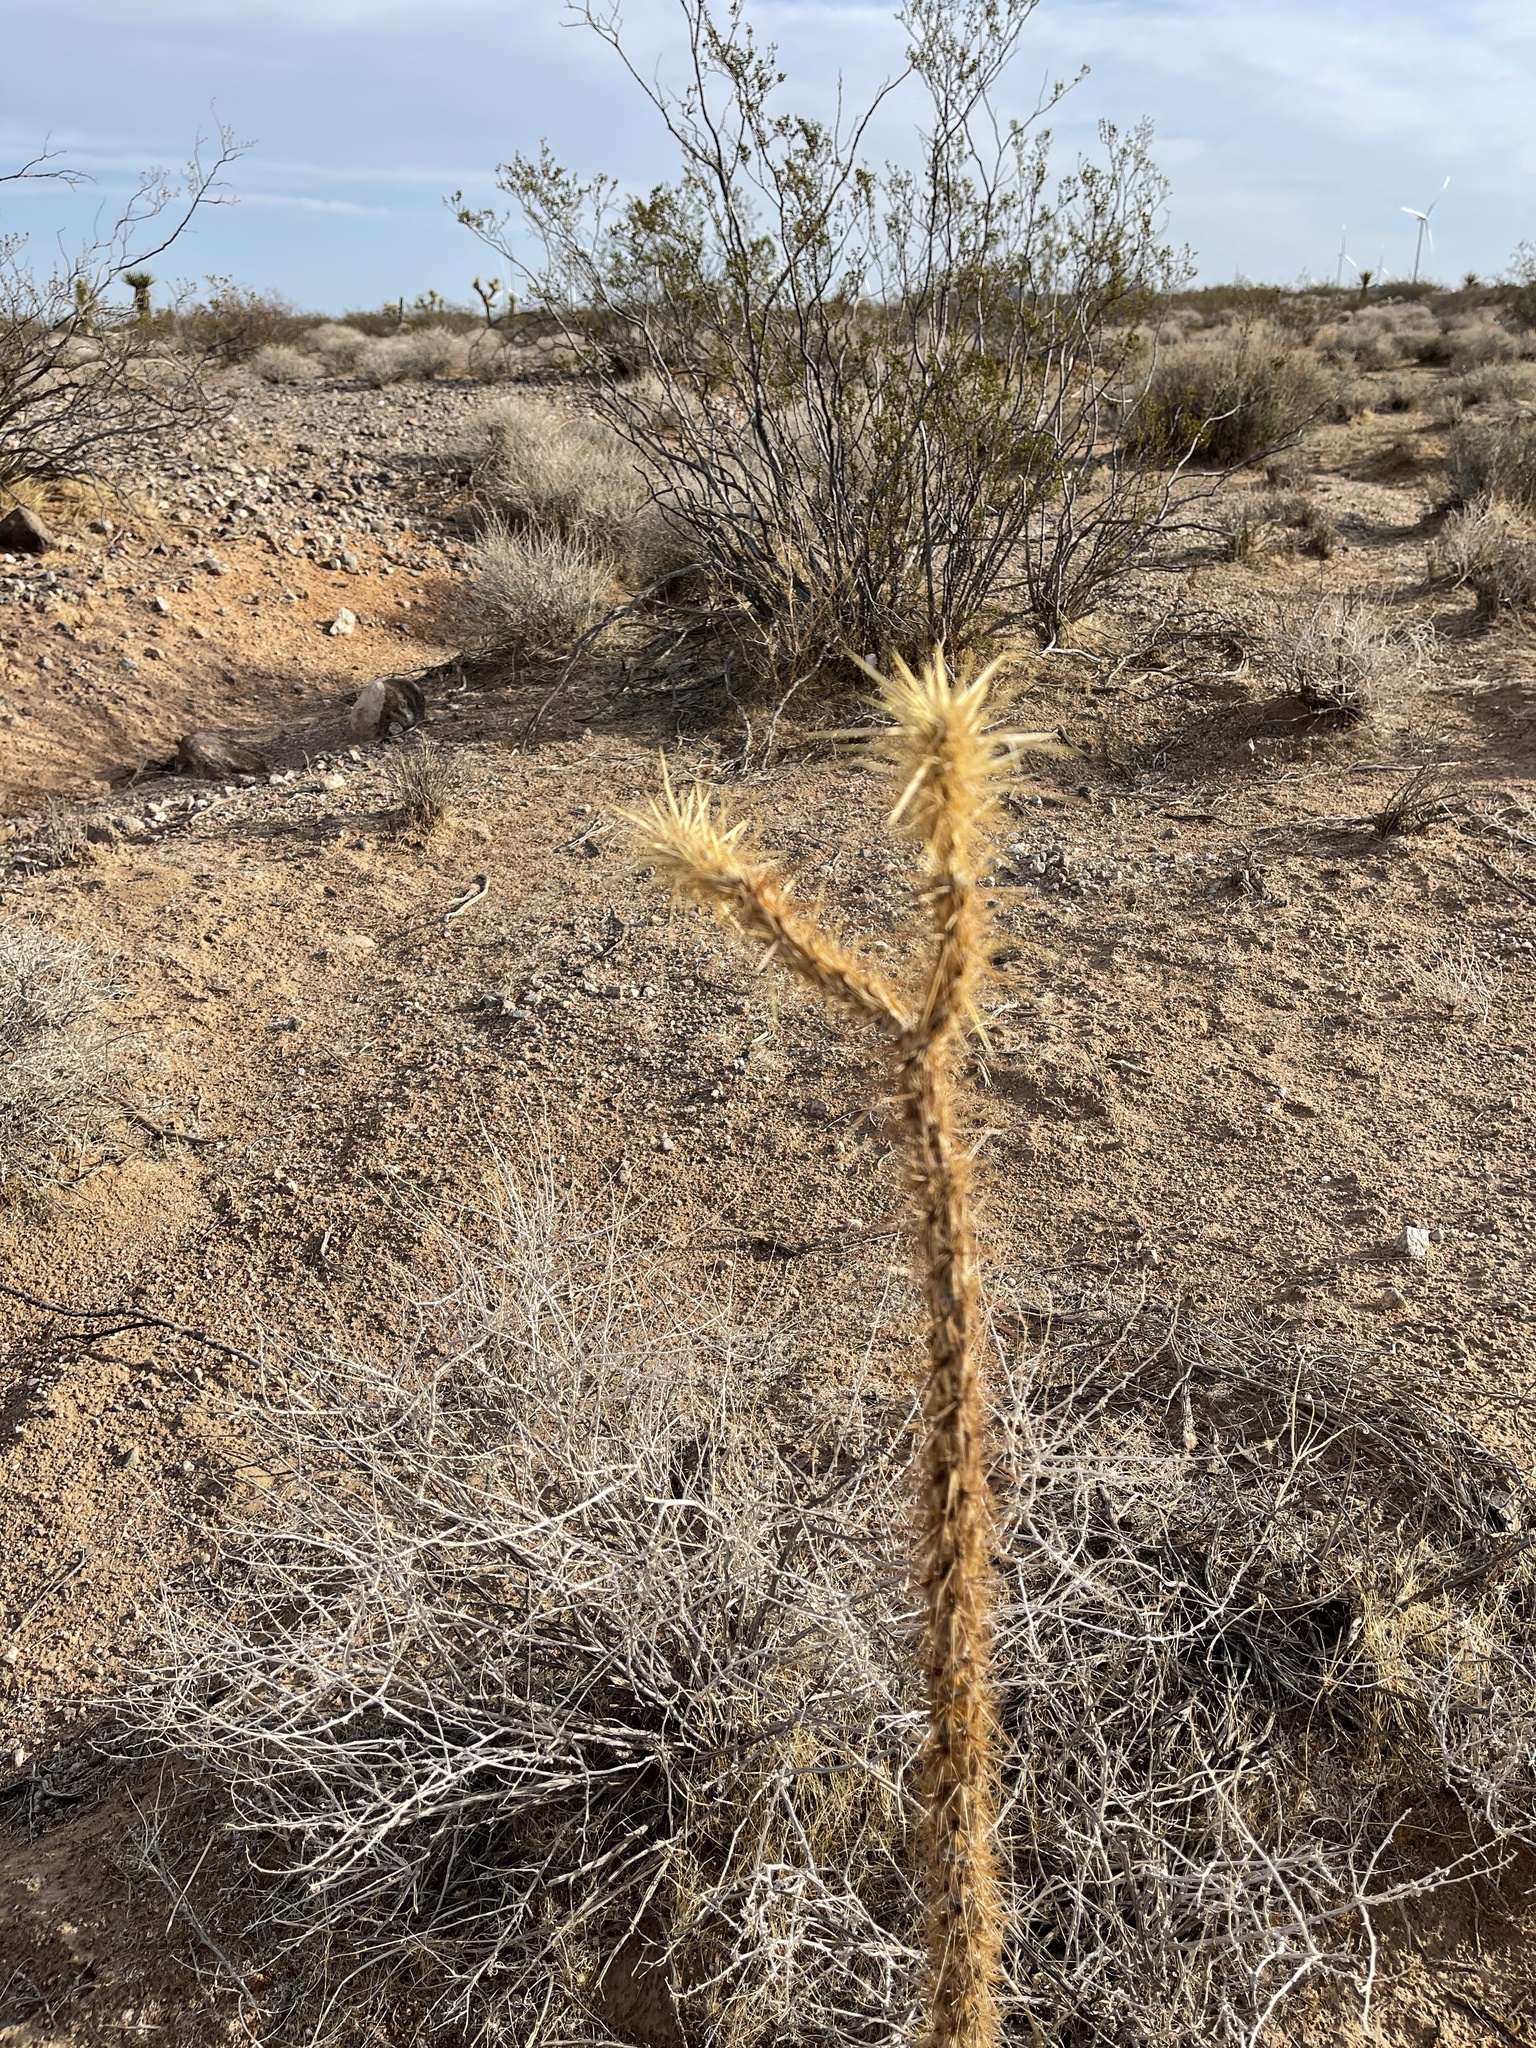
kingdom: Plantae
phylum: Tracheophyta
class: Magnoliopsida
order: Caryophyllales
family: Cactaceae
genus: Cylindropuntia
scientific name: Cylindropuntia acanthocarpa
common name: Buckhorn cholla
